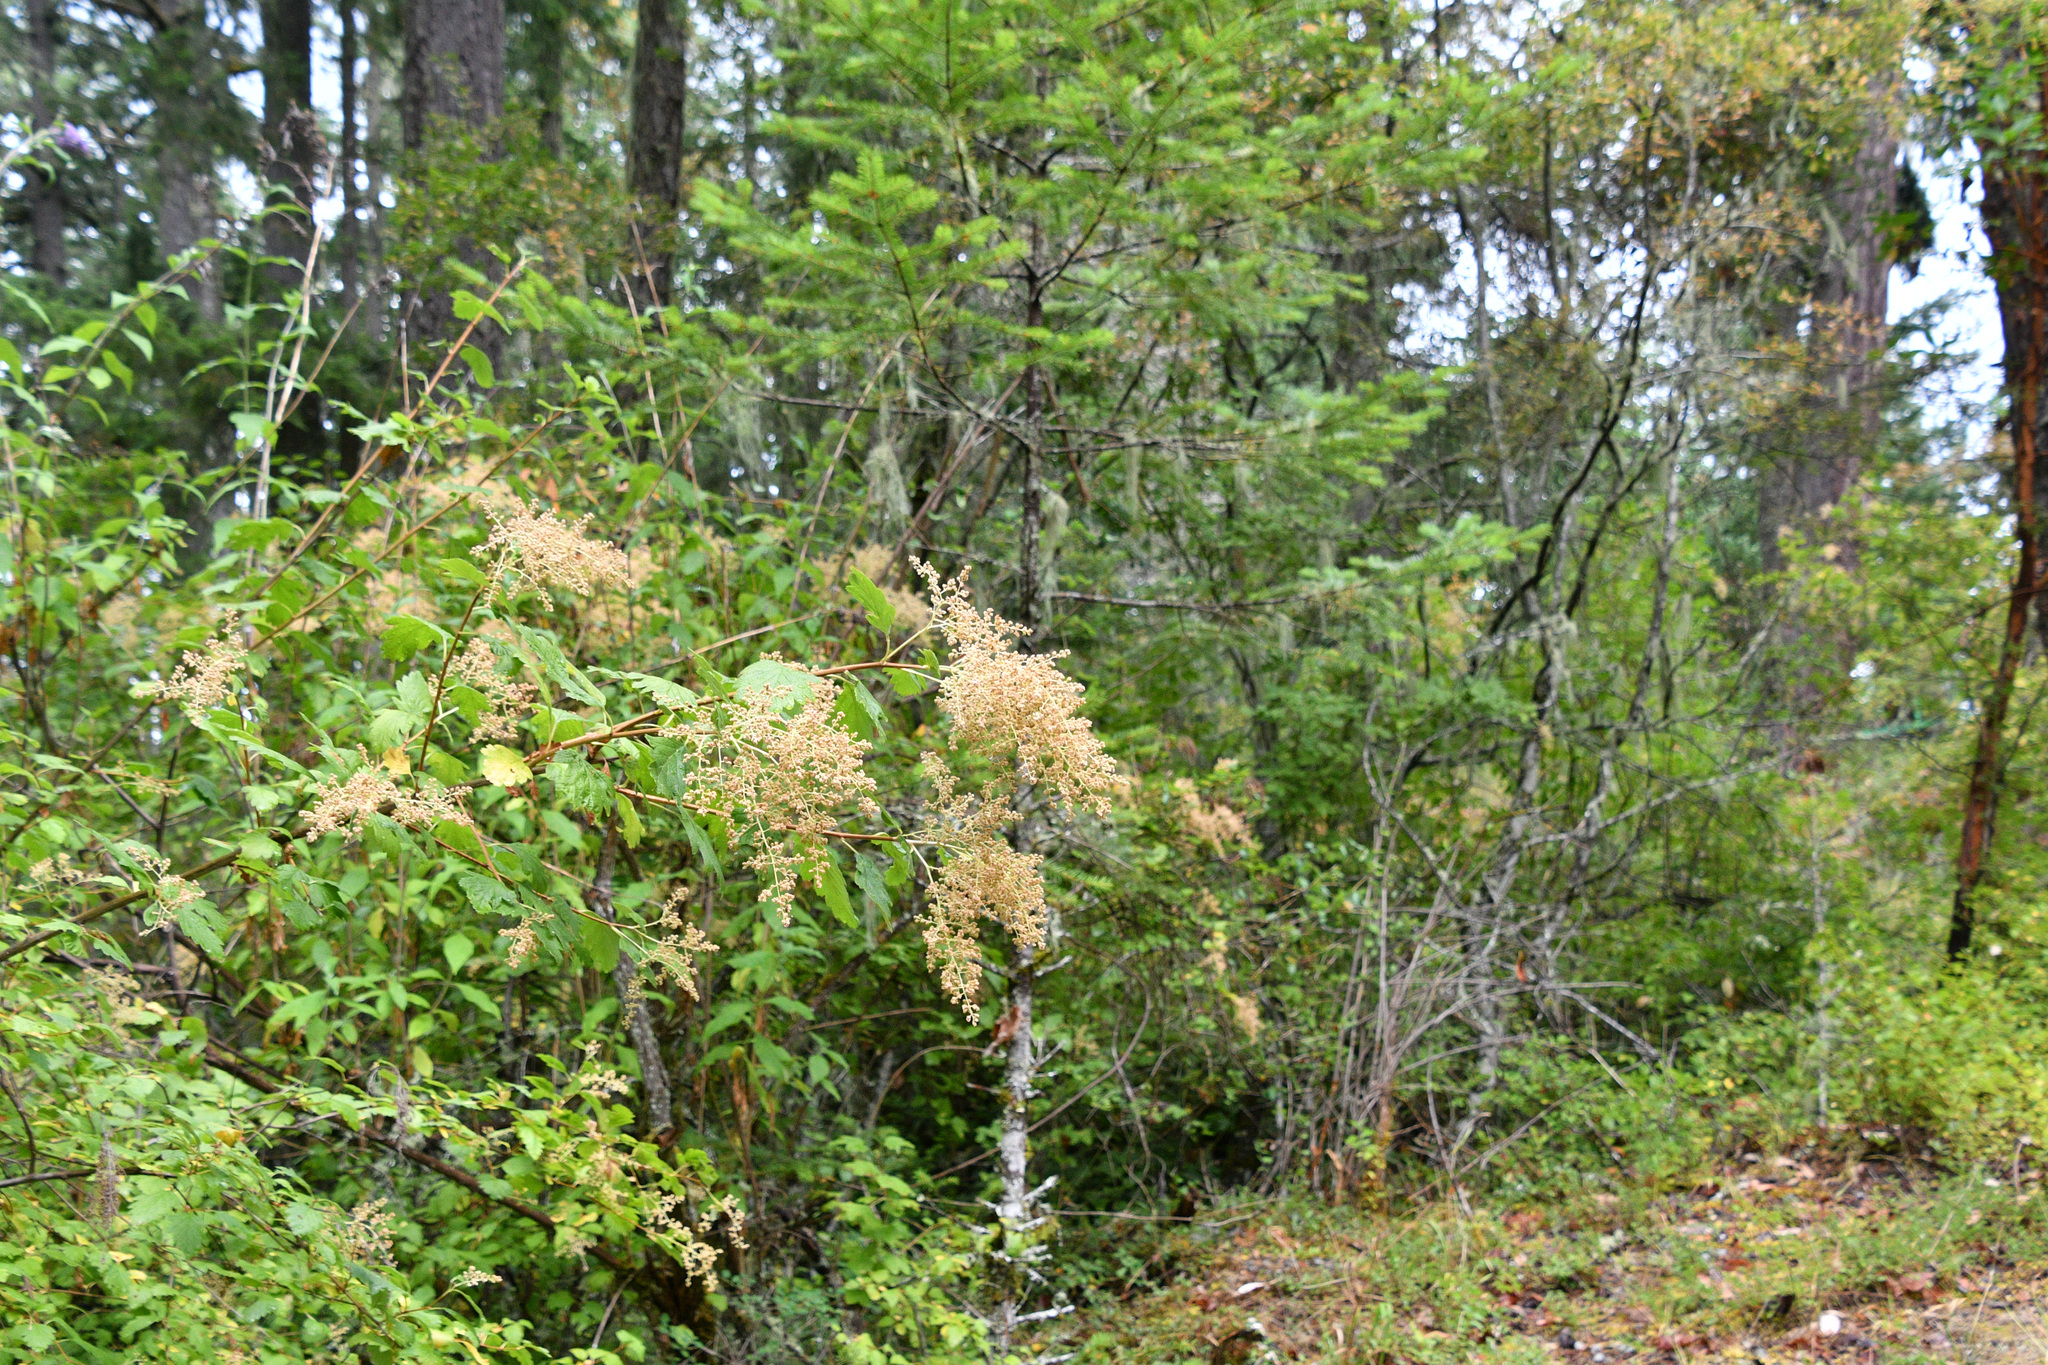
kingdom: Plantae
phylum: Tracheophyta
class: Magnoliopsida
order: Rosales
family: Rosaceae
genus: Holodiscus
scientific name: Holodiscus discolor
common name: Oceanspray
